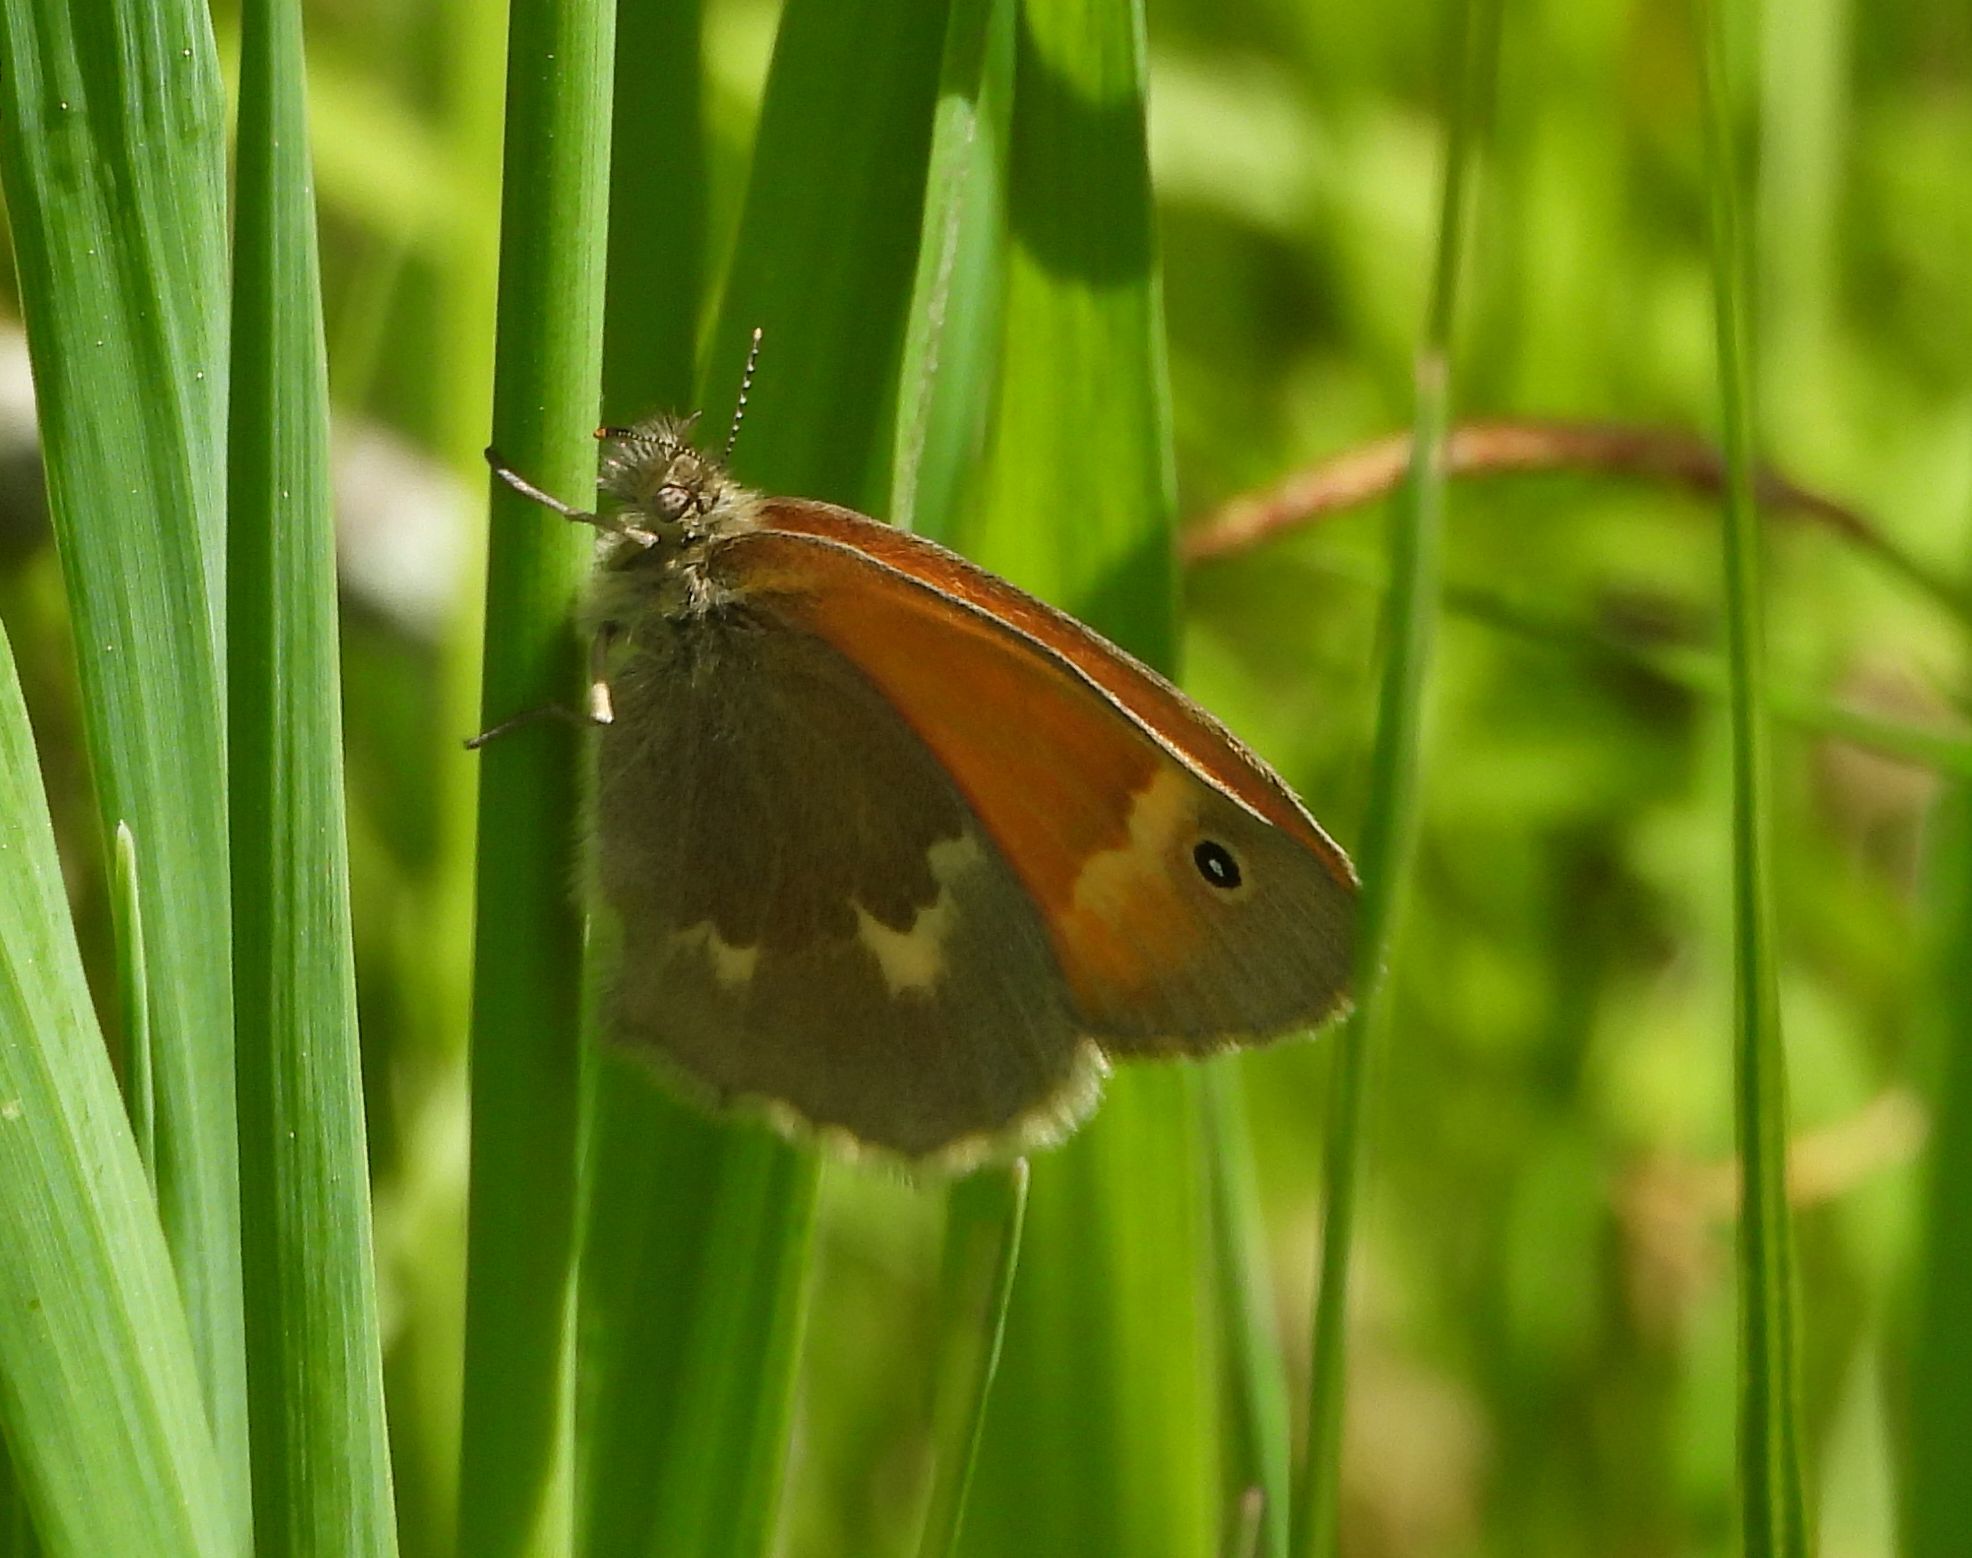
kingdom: Animalia
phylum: Arthropoda
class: Insecta
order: Lepidoptera
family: Nymphalidae
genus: Coenonympha
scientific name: Coenonympha california
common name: Common ringlet
